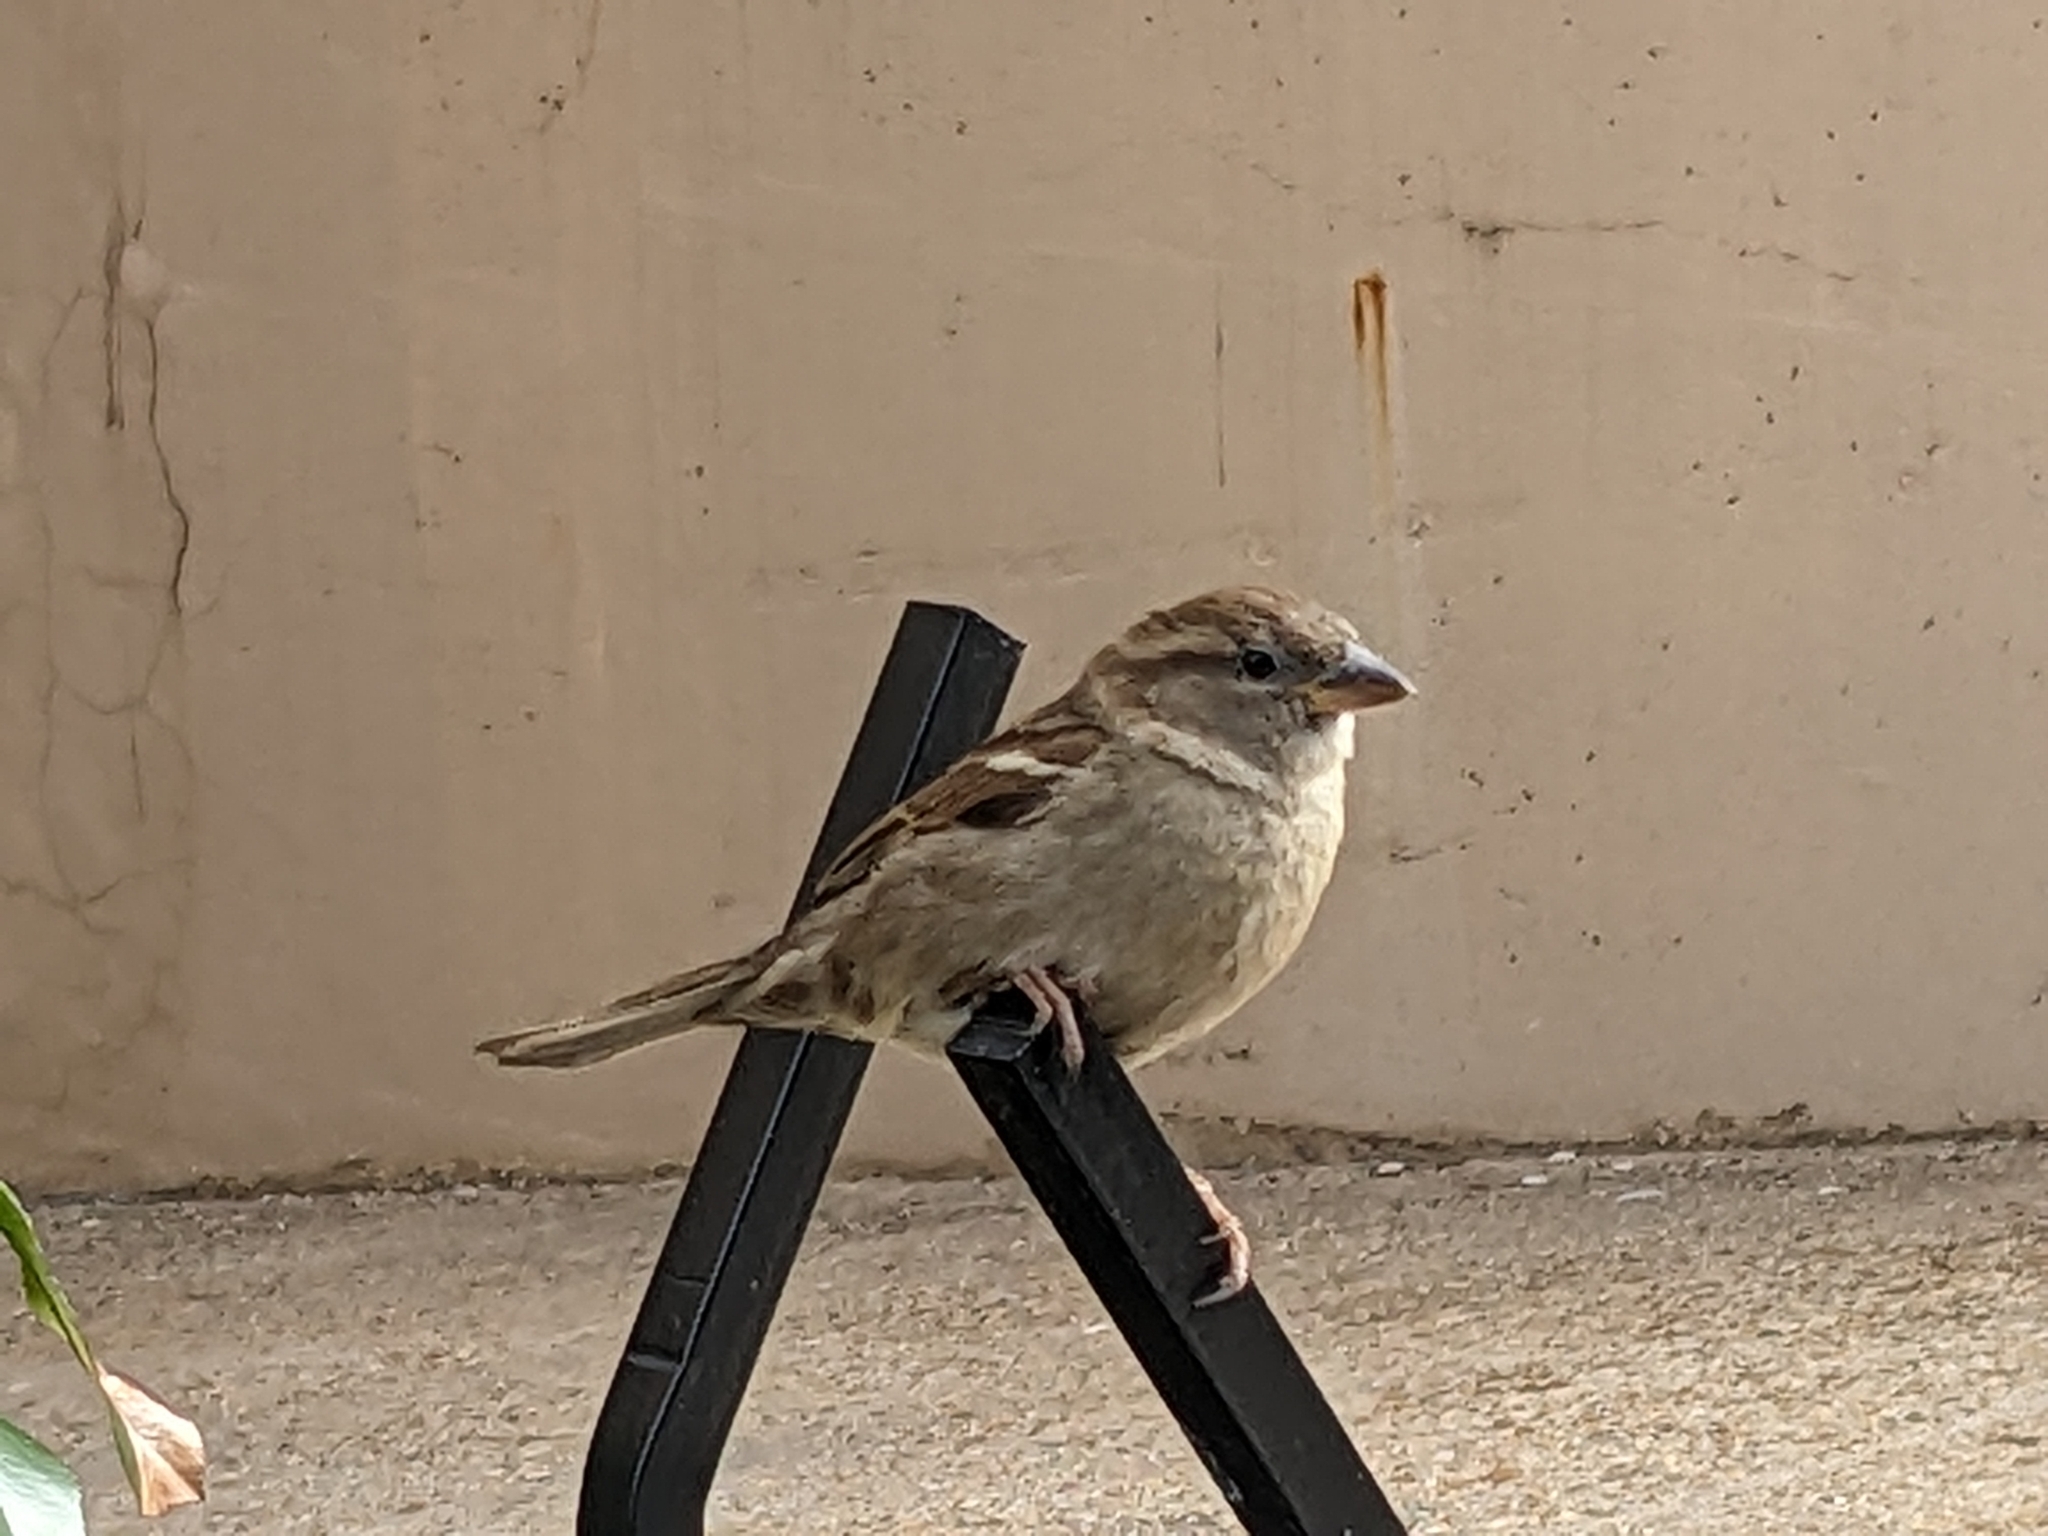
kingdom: Animalia
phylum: Chordata
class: Aves
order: Passeriformes
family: Passeridae
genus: Passer
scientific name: Passer domesticus
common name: House sparrow
